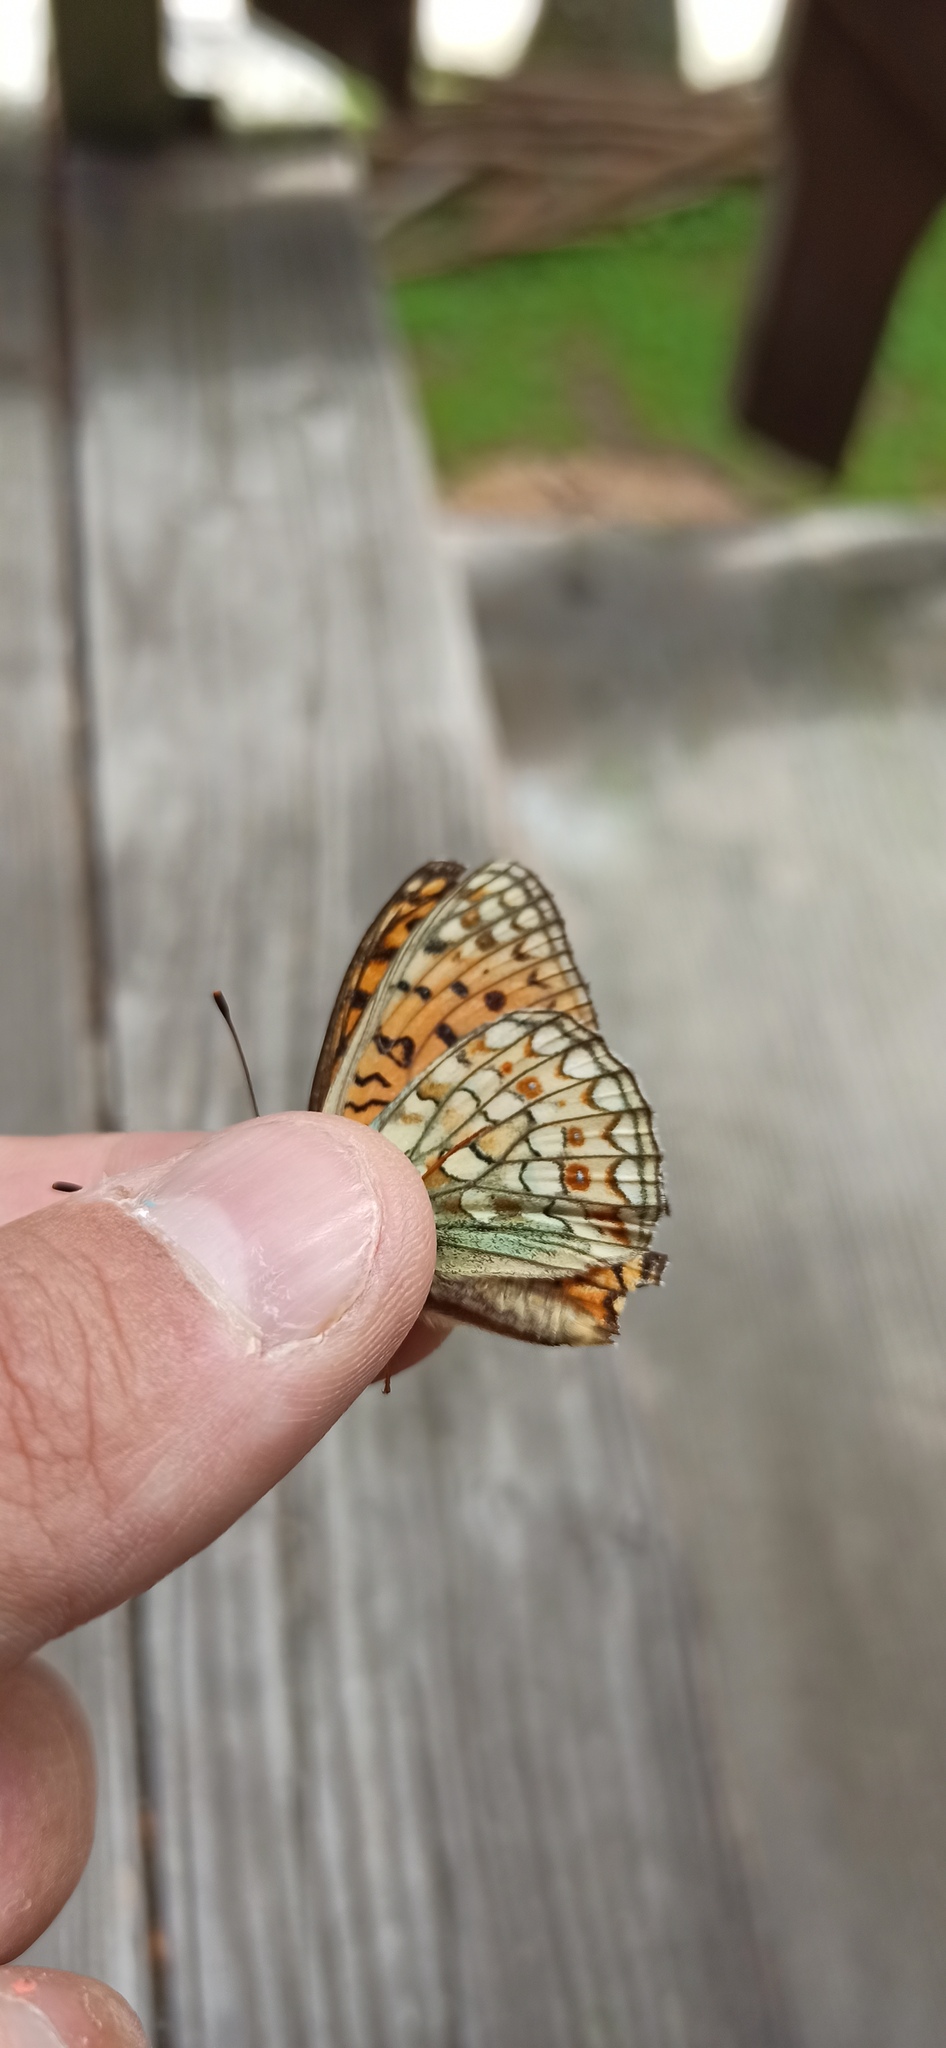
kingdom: Animalia
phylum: Arthropoda
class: Insecta
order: Lepidoptera
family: Nymphalidae
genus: Fabriciana
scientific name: Fabriciana niobe
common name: Niobe fritillary
